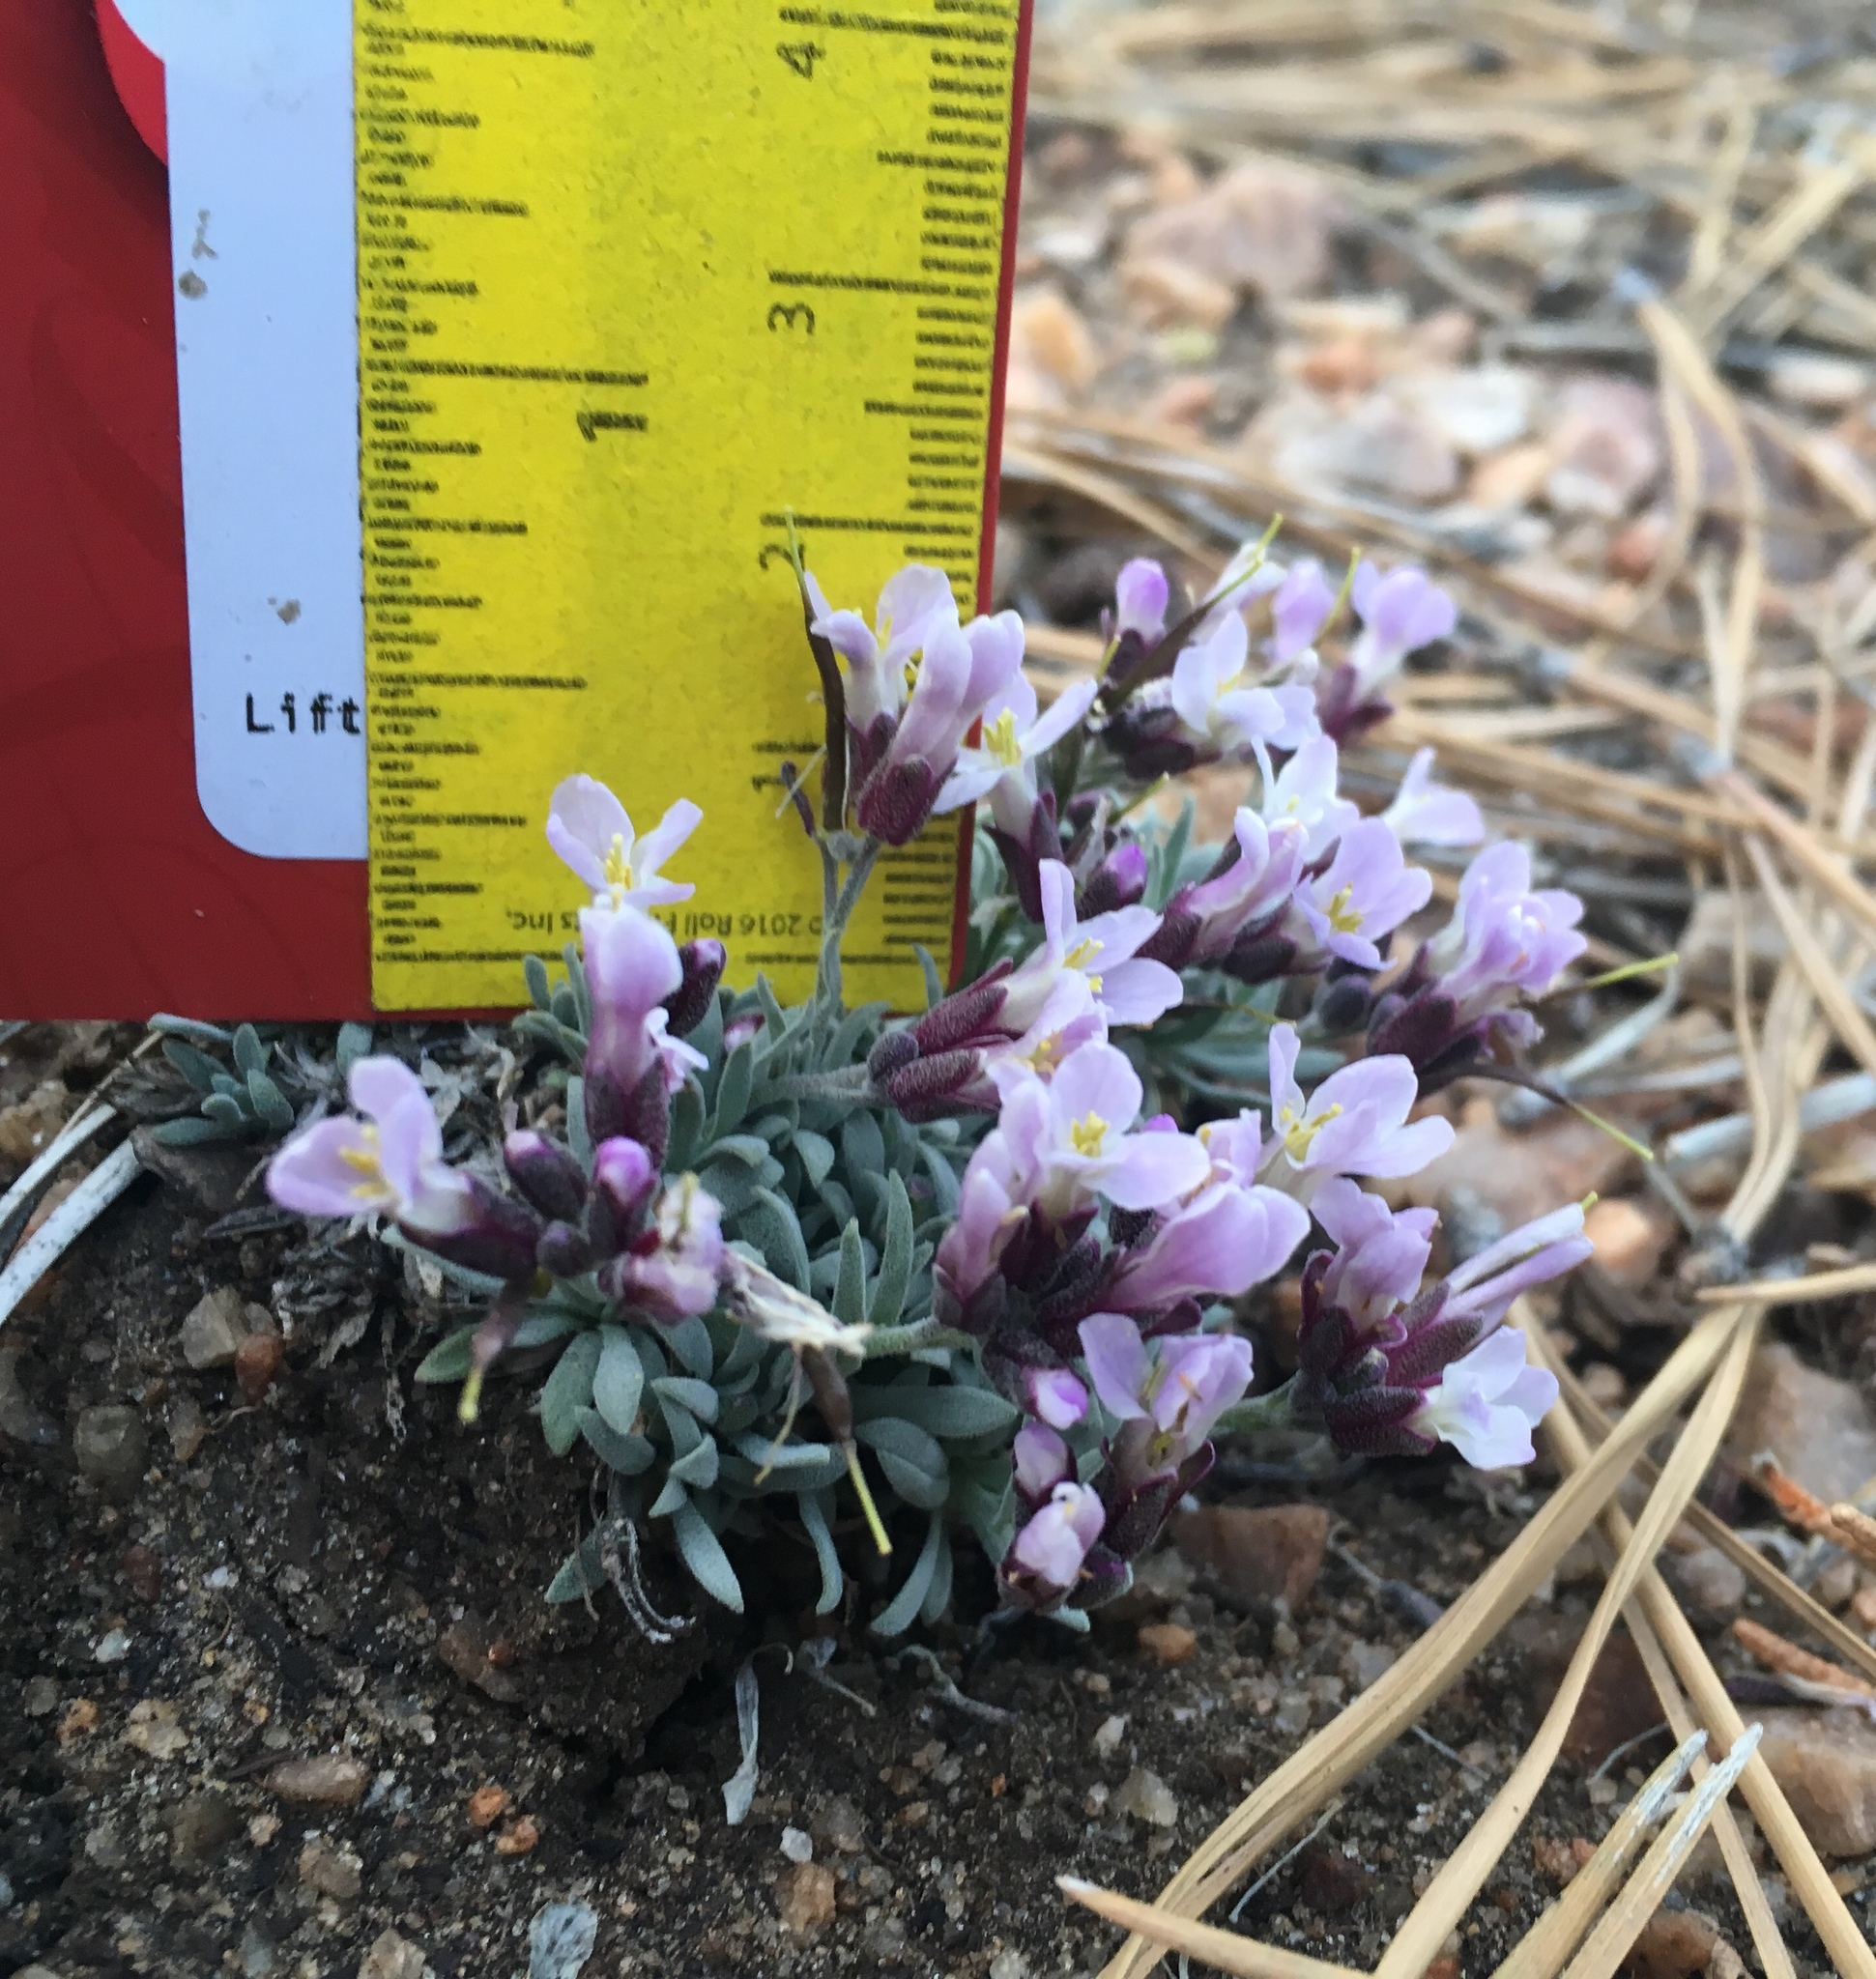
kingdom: Plantae
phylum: Tracheophyta
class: Magnoliopsida
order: Brassicales
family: Brassicaceae
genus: Boechera
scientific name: Boechera parishii
